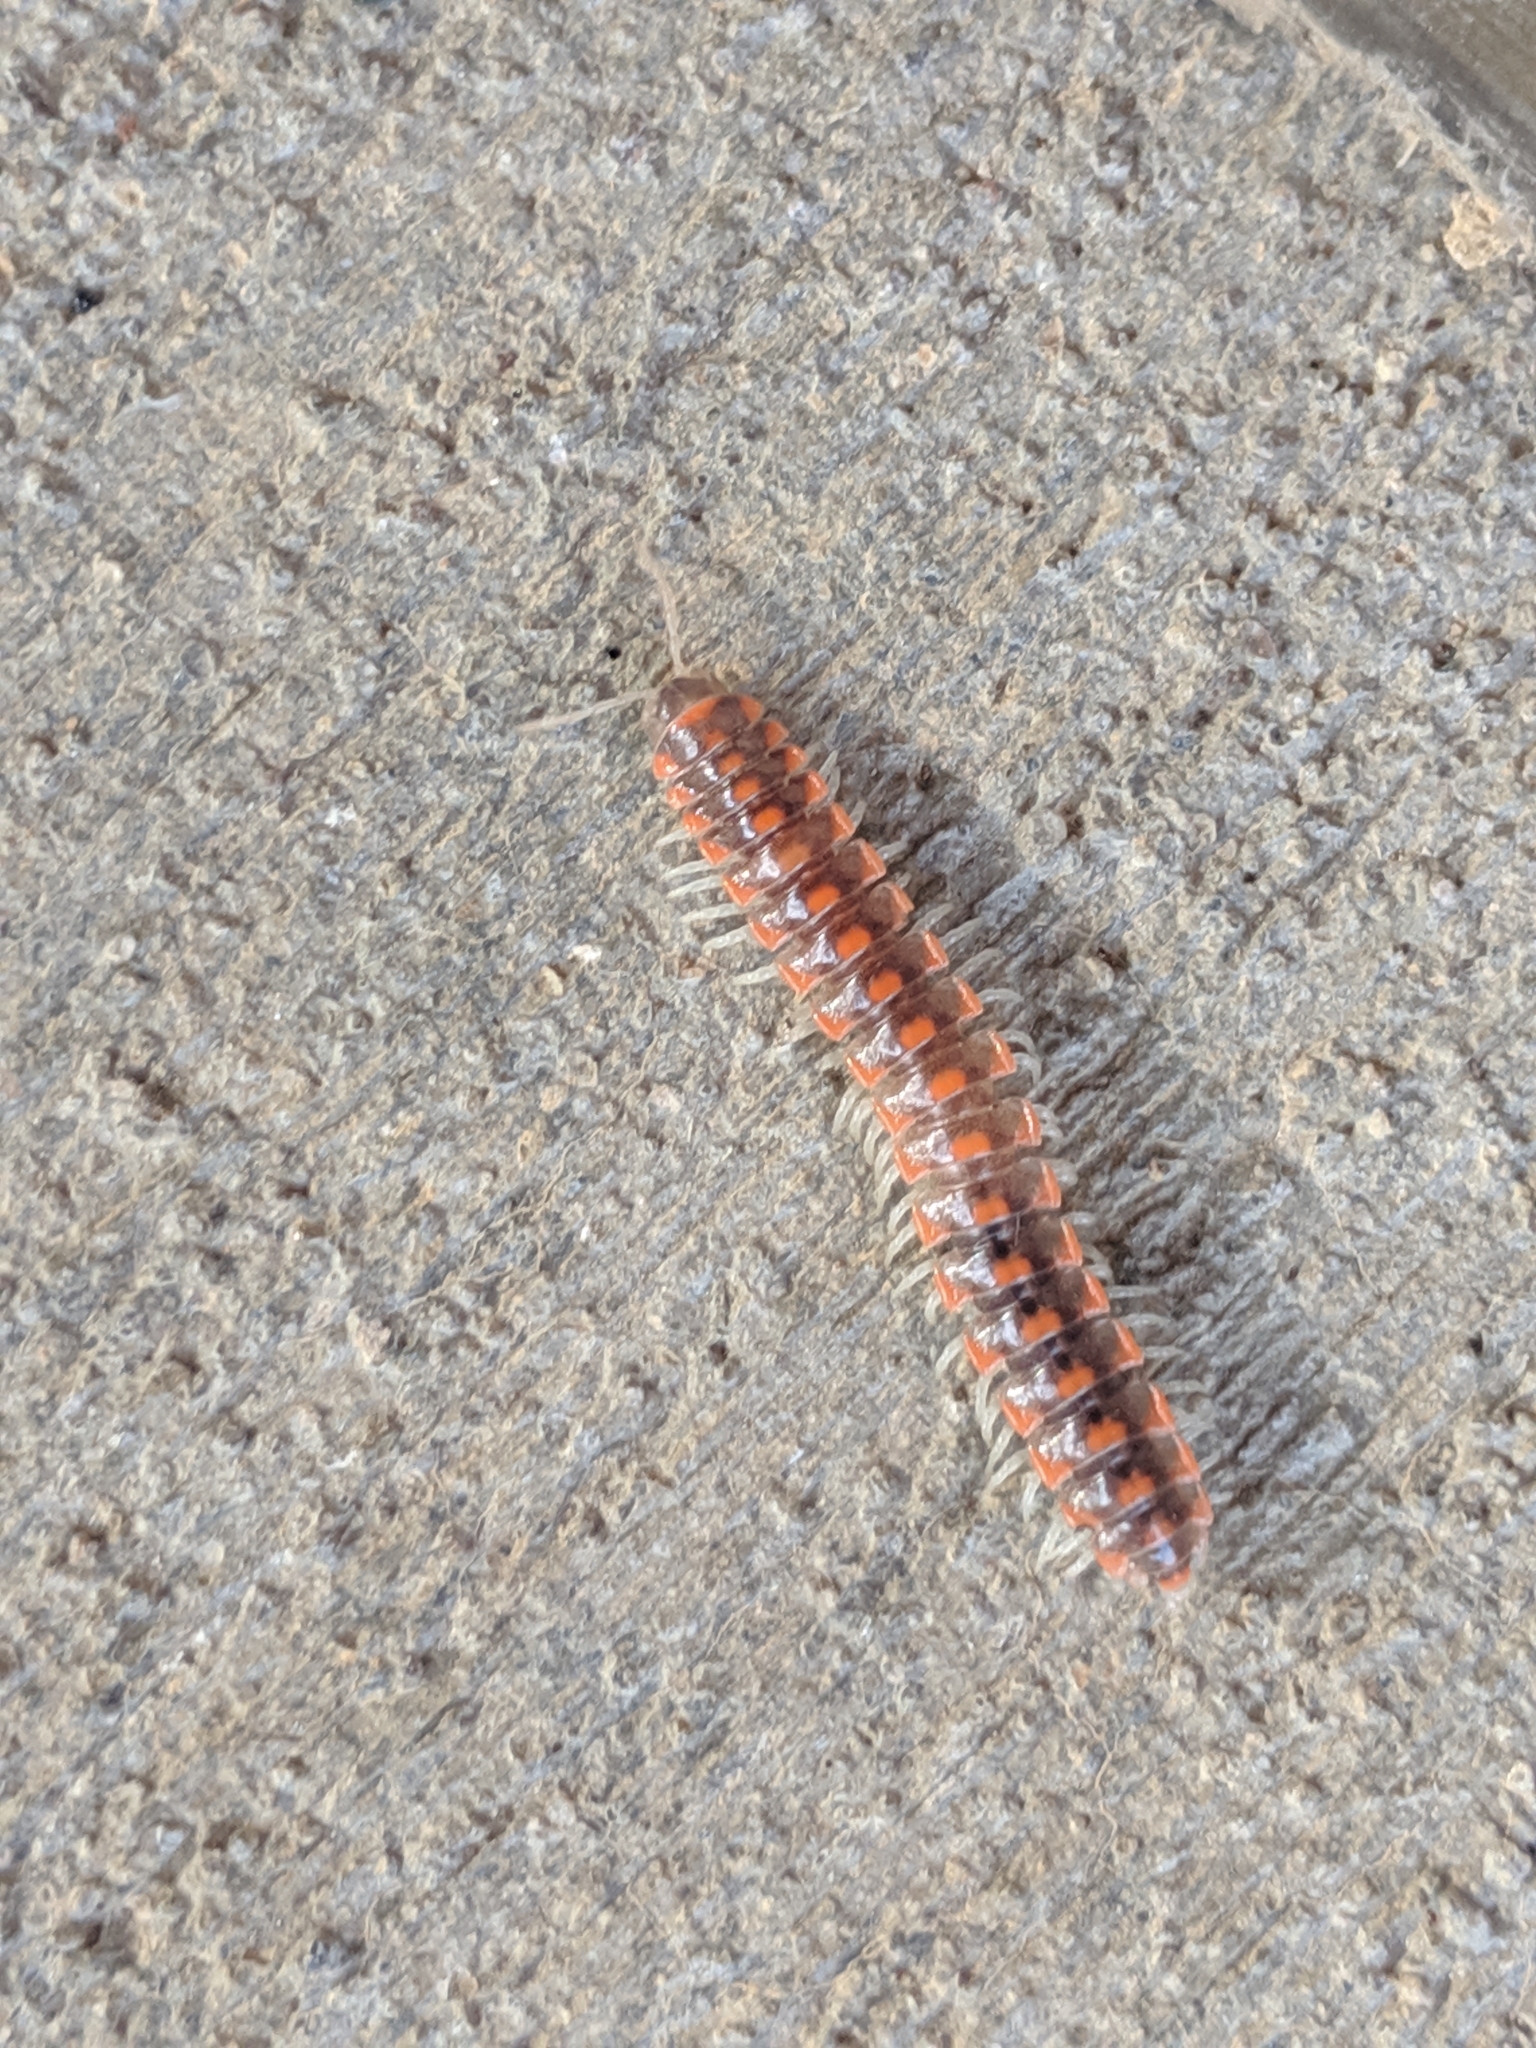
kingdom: Animalia
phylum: Arthropoda
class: Diplopoda
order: Polydesmida
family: Xystodesmidae
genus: Euryurus
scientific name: Euryurus leachii
